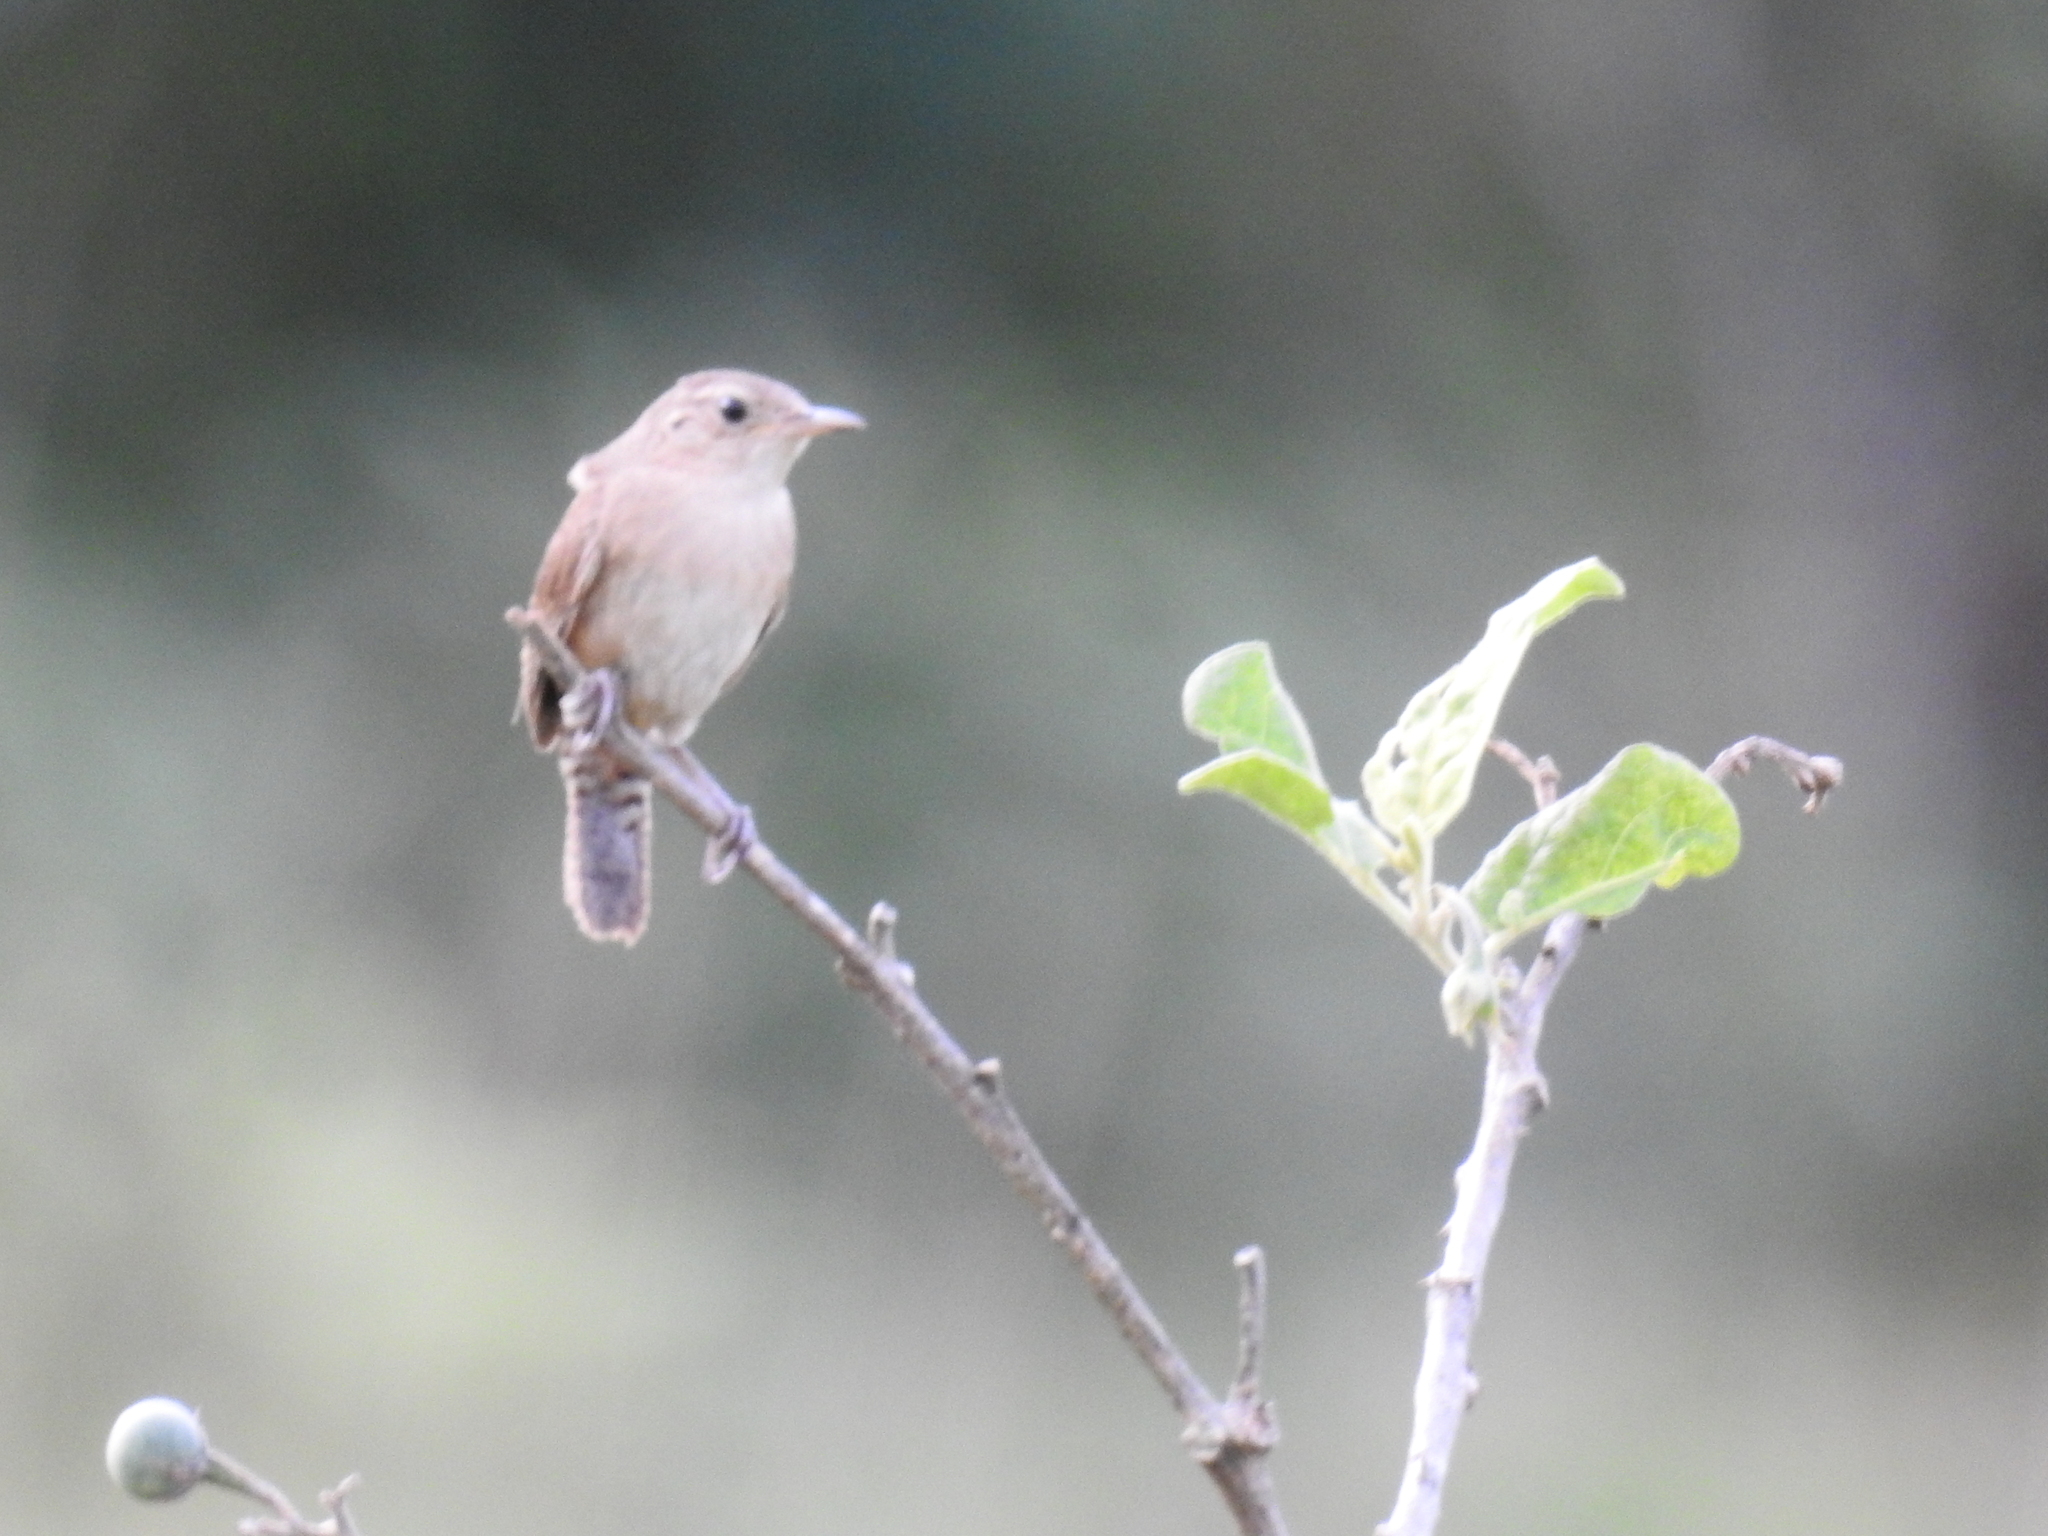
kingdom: Animalia
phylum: Chordata
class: Aves
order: Passeriformes
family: Troglodytidae
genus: Troglodytes
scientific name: Troglodytes aedon
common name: House wren
